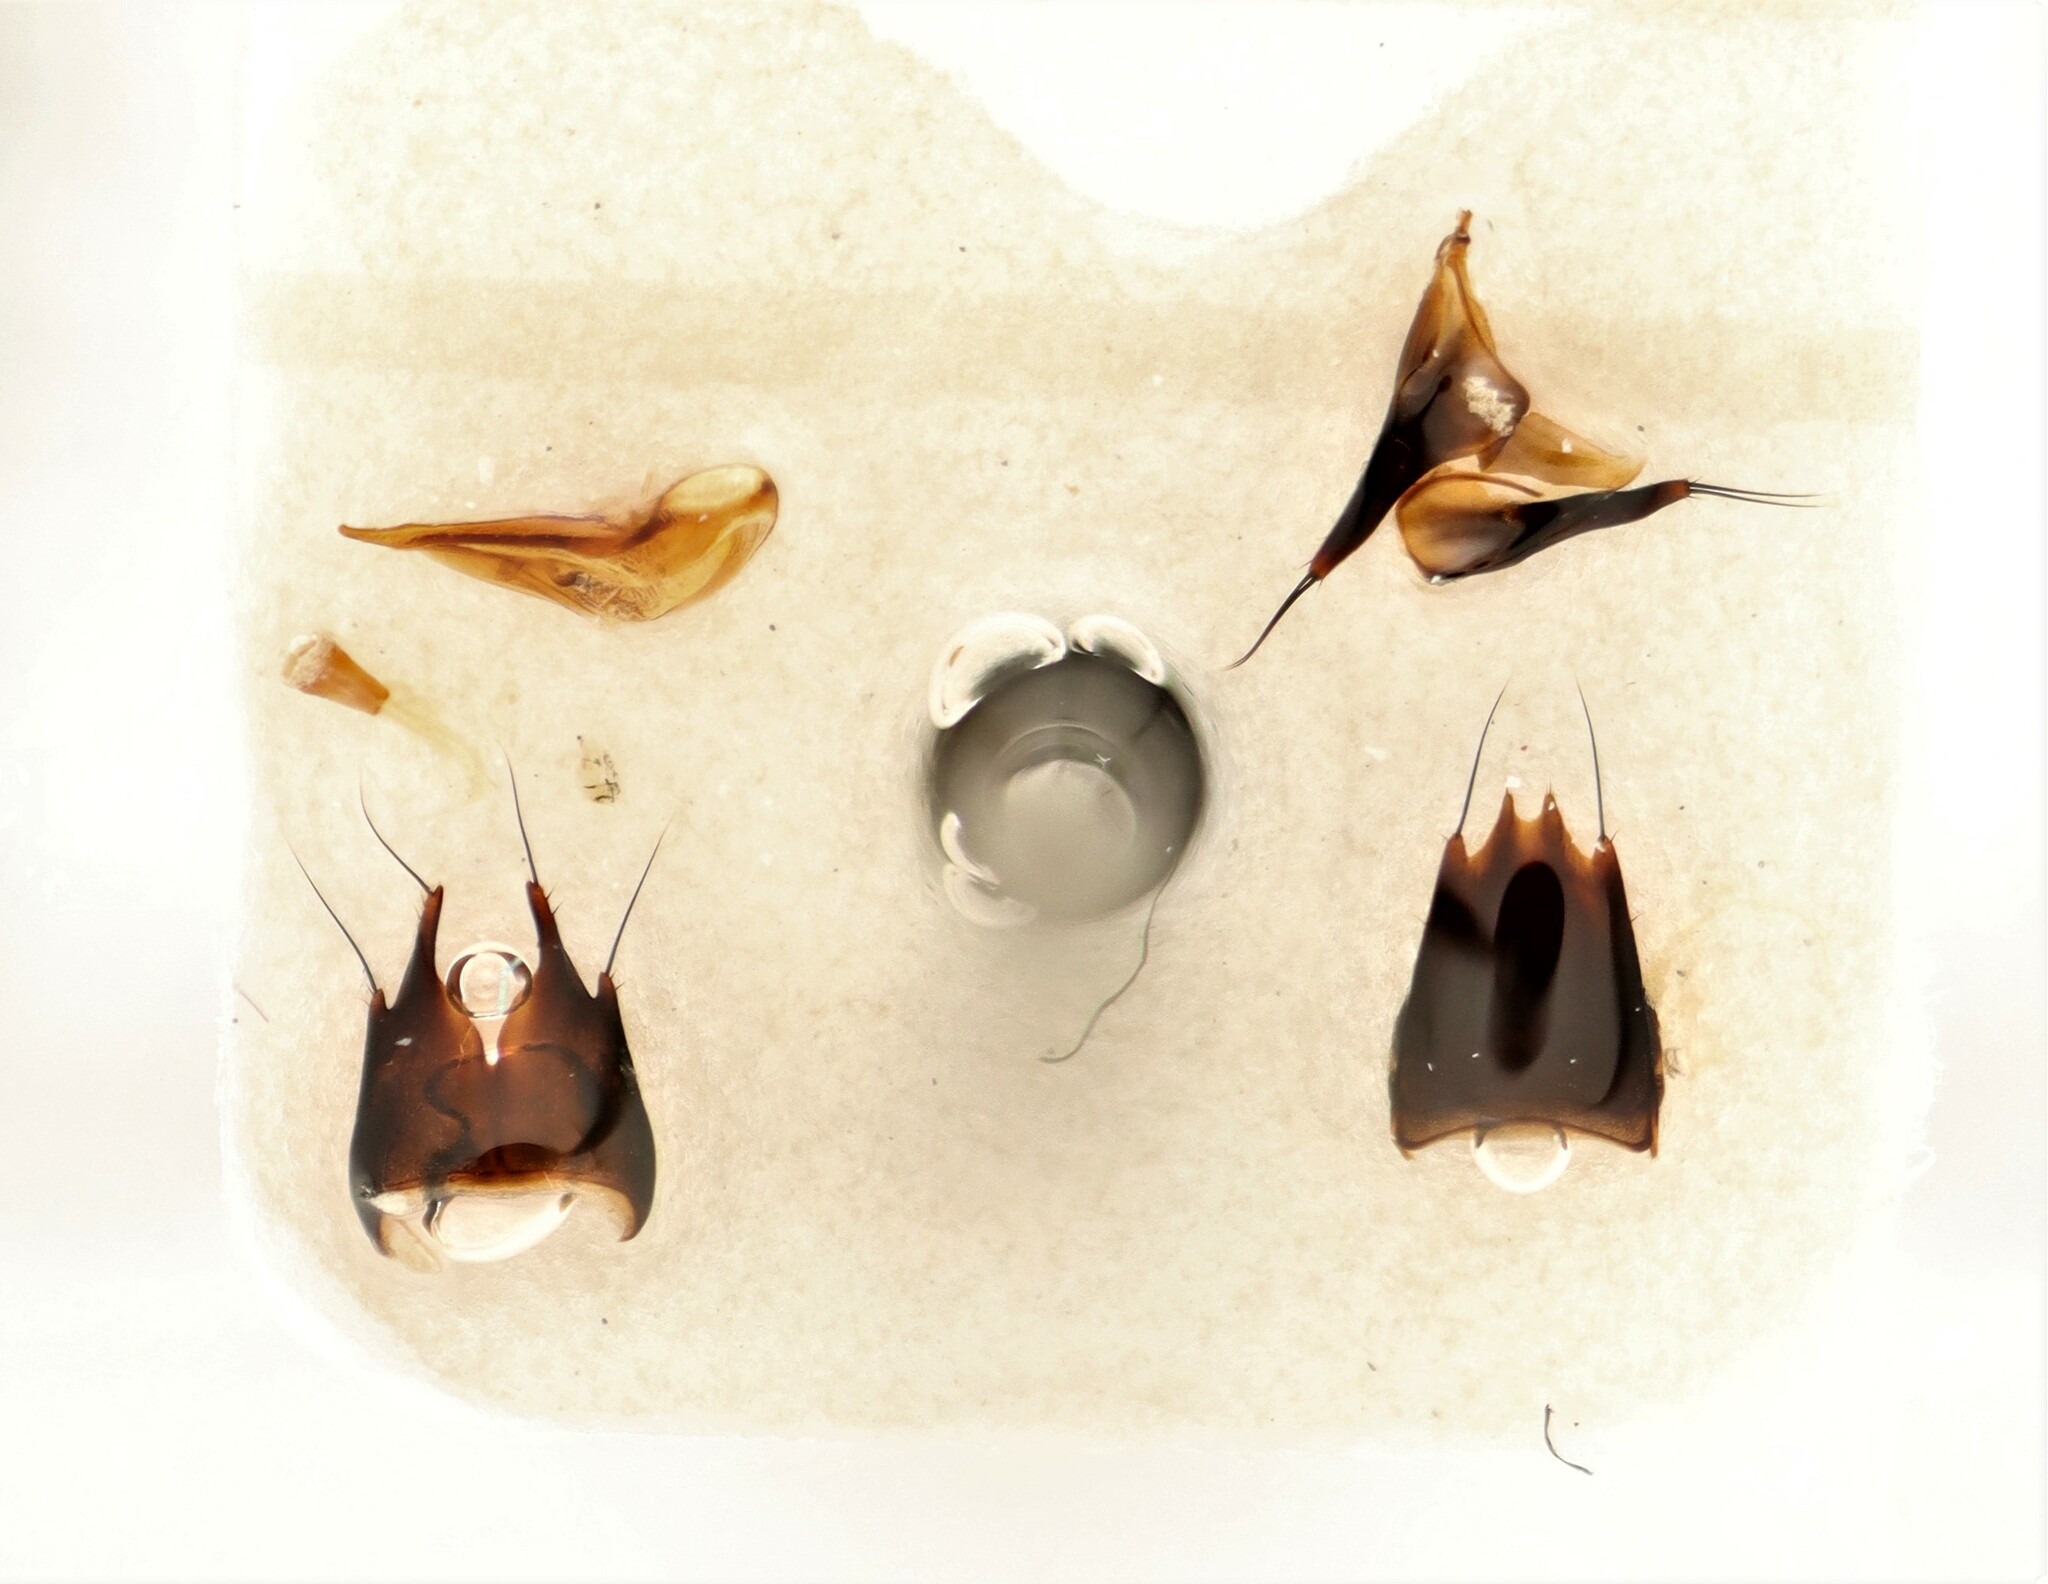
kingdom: Animalia
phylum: Arthropoda
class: Insecta
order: Coleoptera
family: Staphylinidae
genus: Tachinus
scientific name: Tachinus rufipes
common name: Rove beetle
